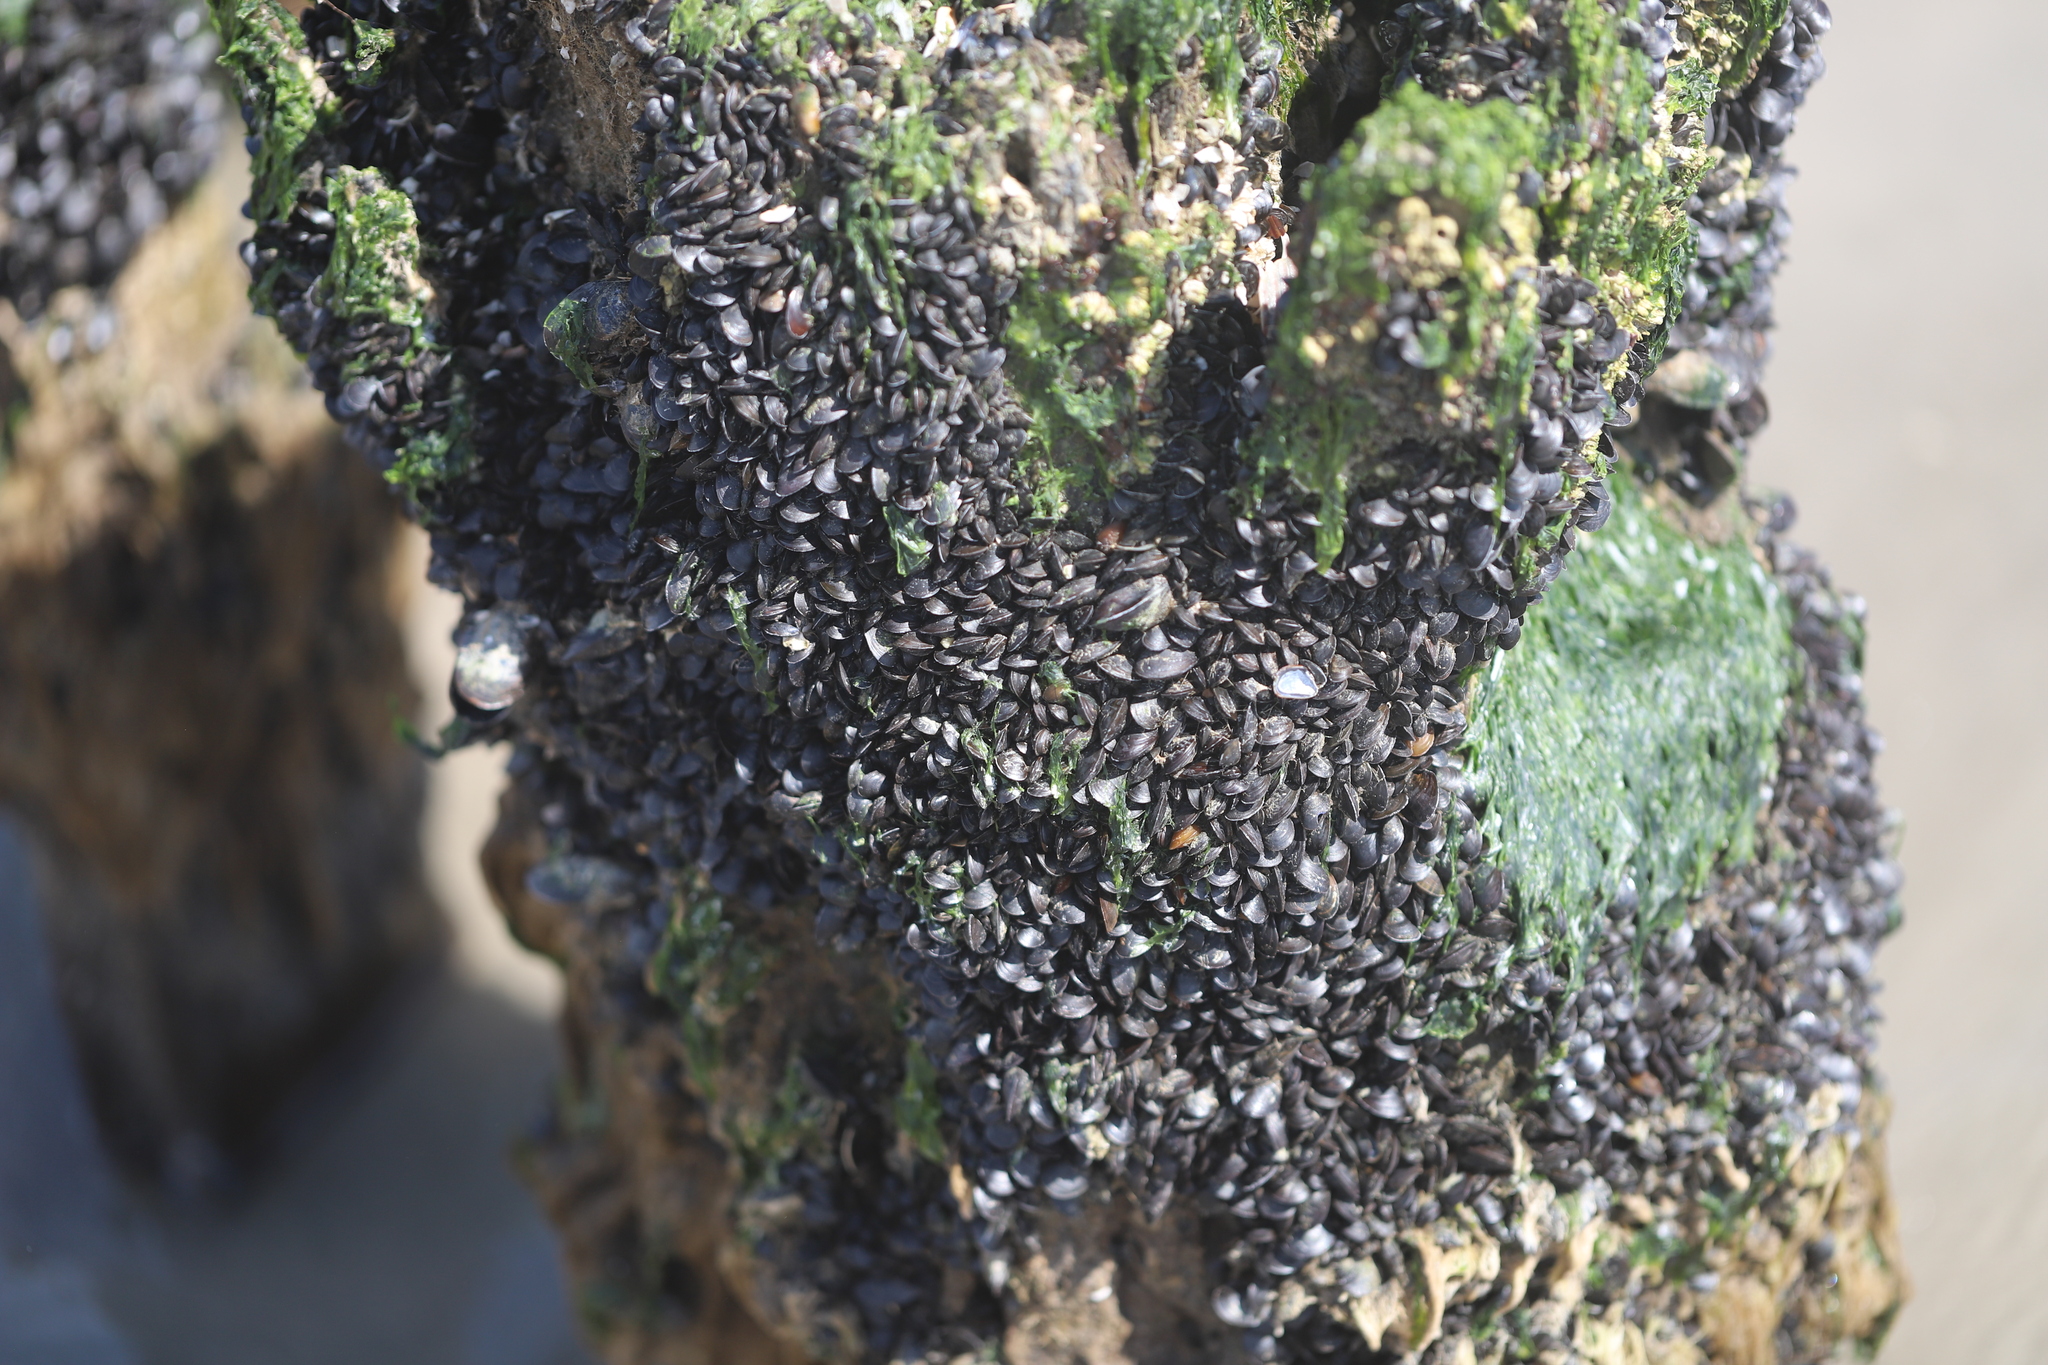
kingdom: Animalia
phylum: Mollusca
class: Bivalvia
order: Mytilida
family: Mytilidae
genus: Mytilus
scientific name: Mytilus edulis
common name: Blue mussel
